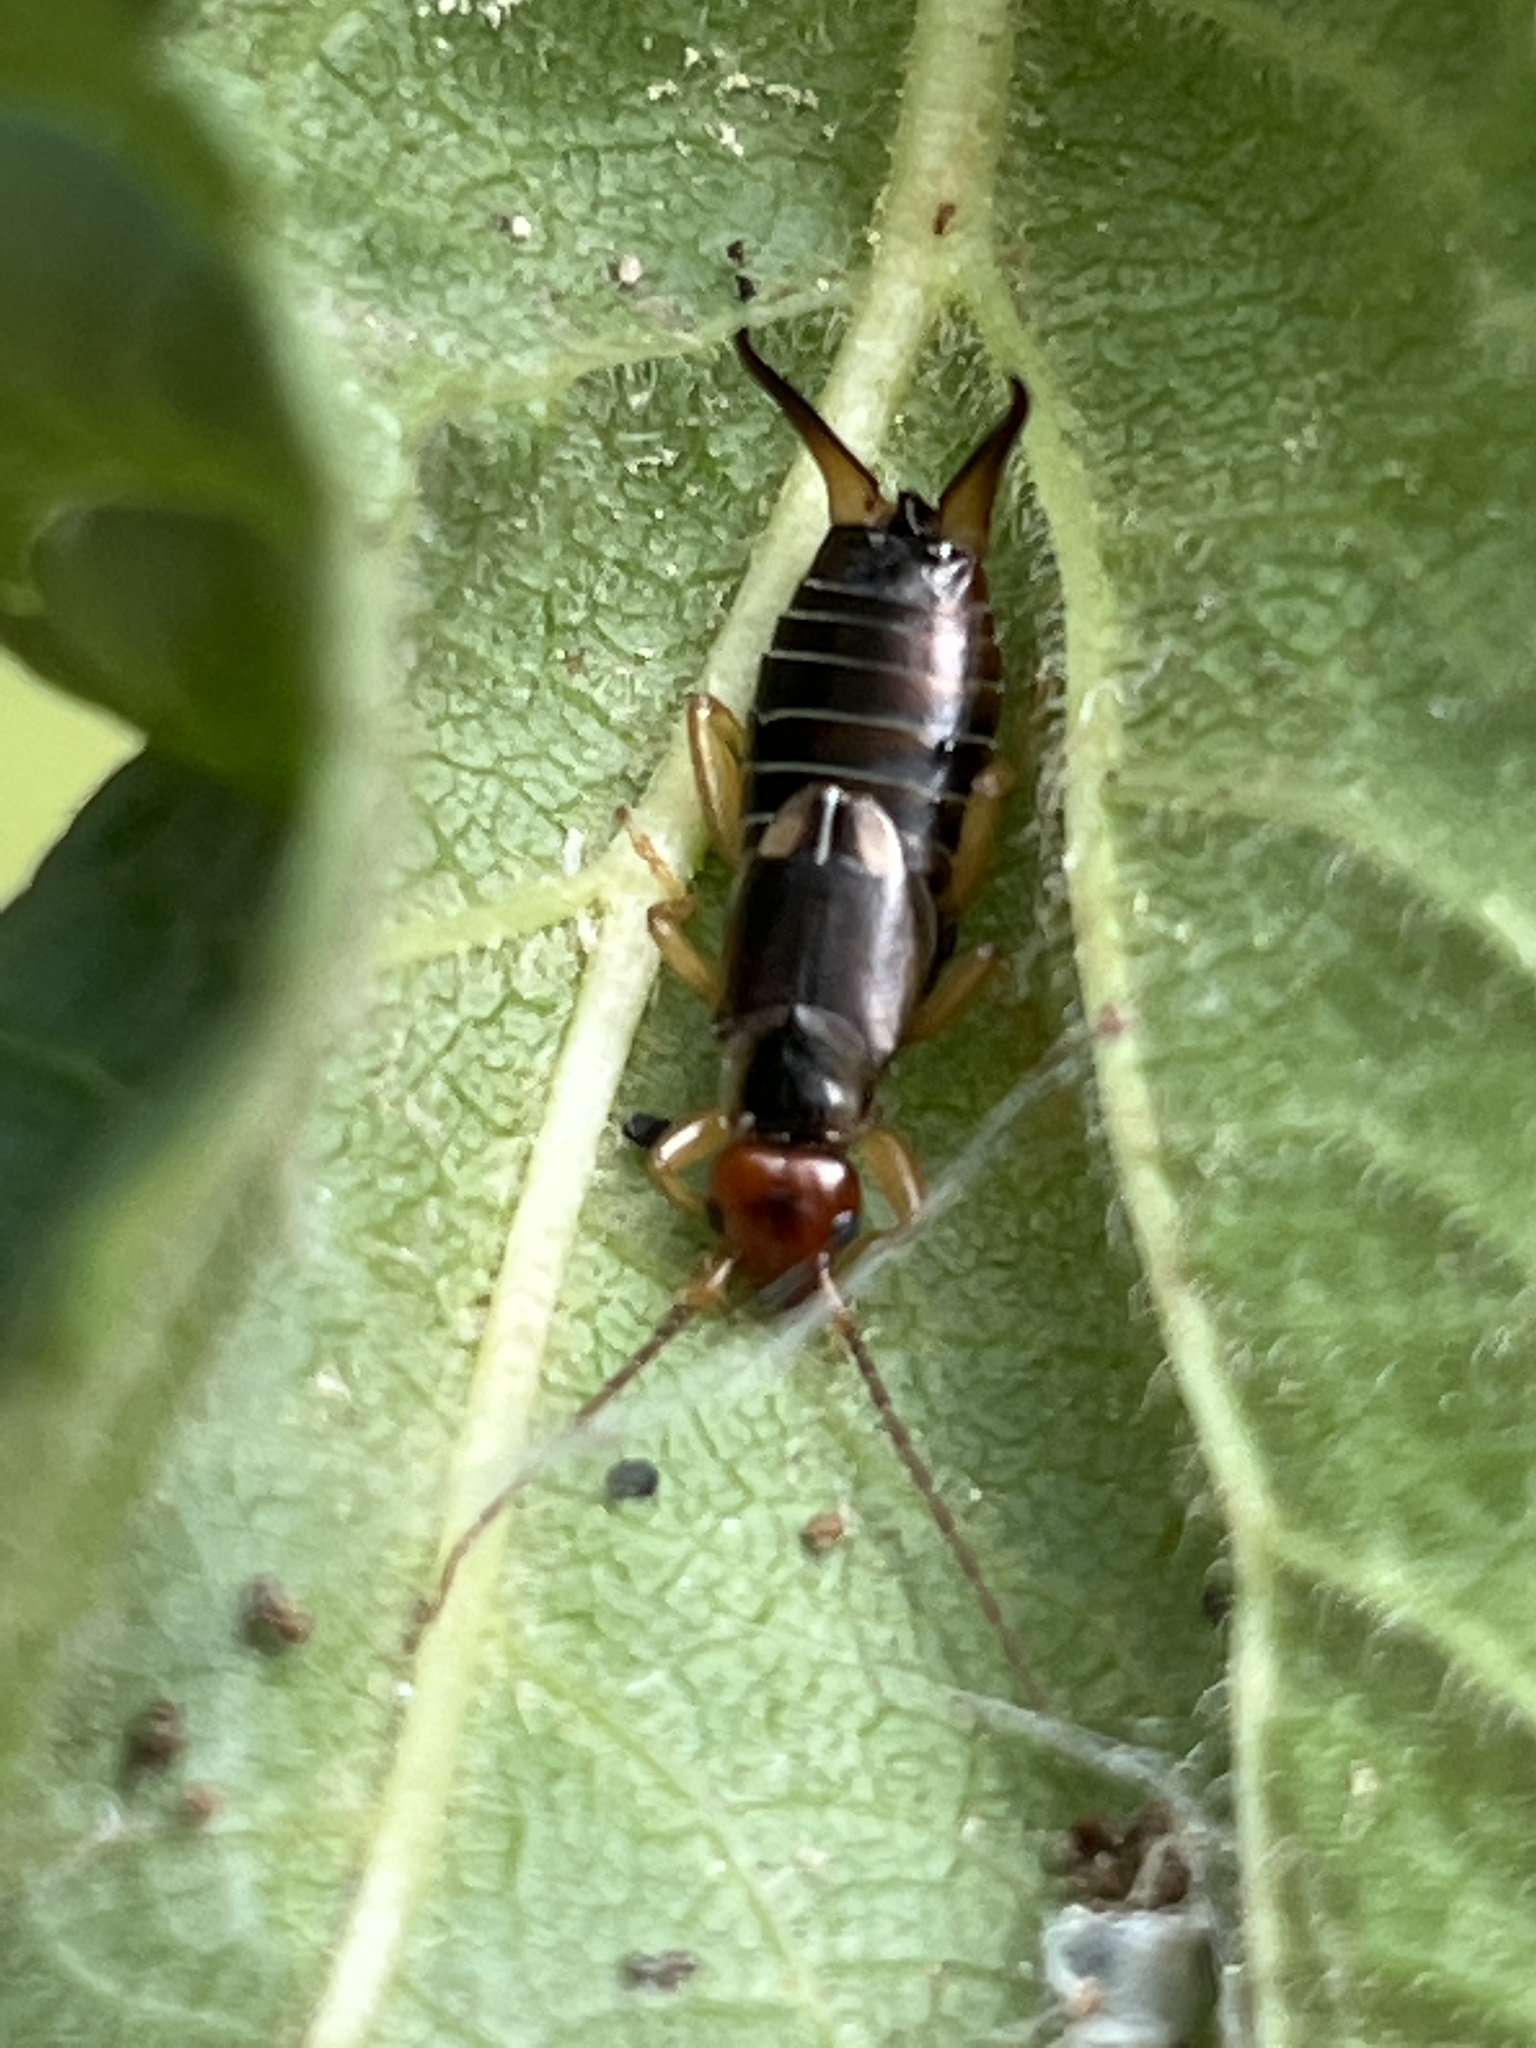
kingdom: Animalia
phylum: Arthropoda
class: Insecta
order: Dermaptera
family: Forficulidae
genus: Forficula
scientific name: Forficula
